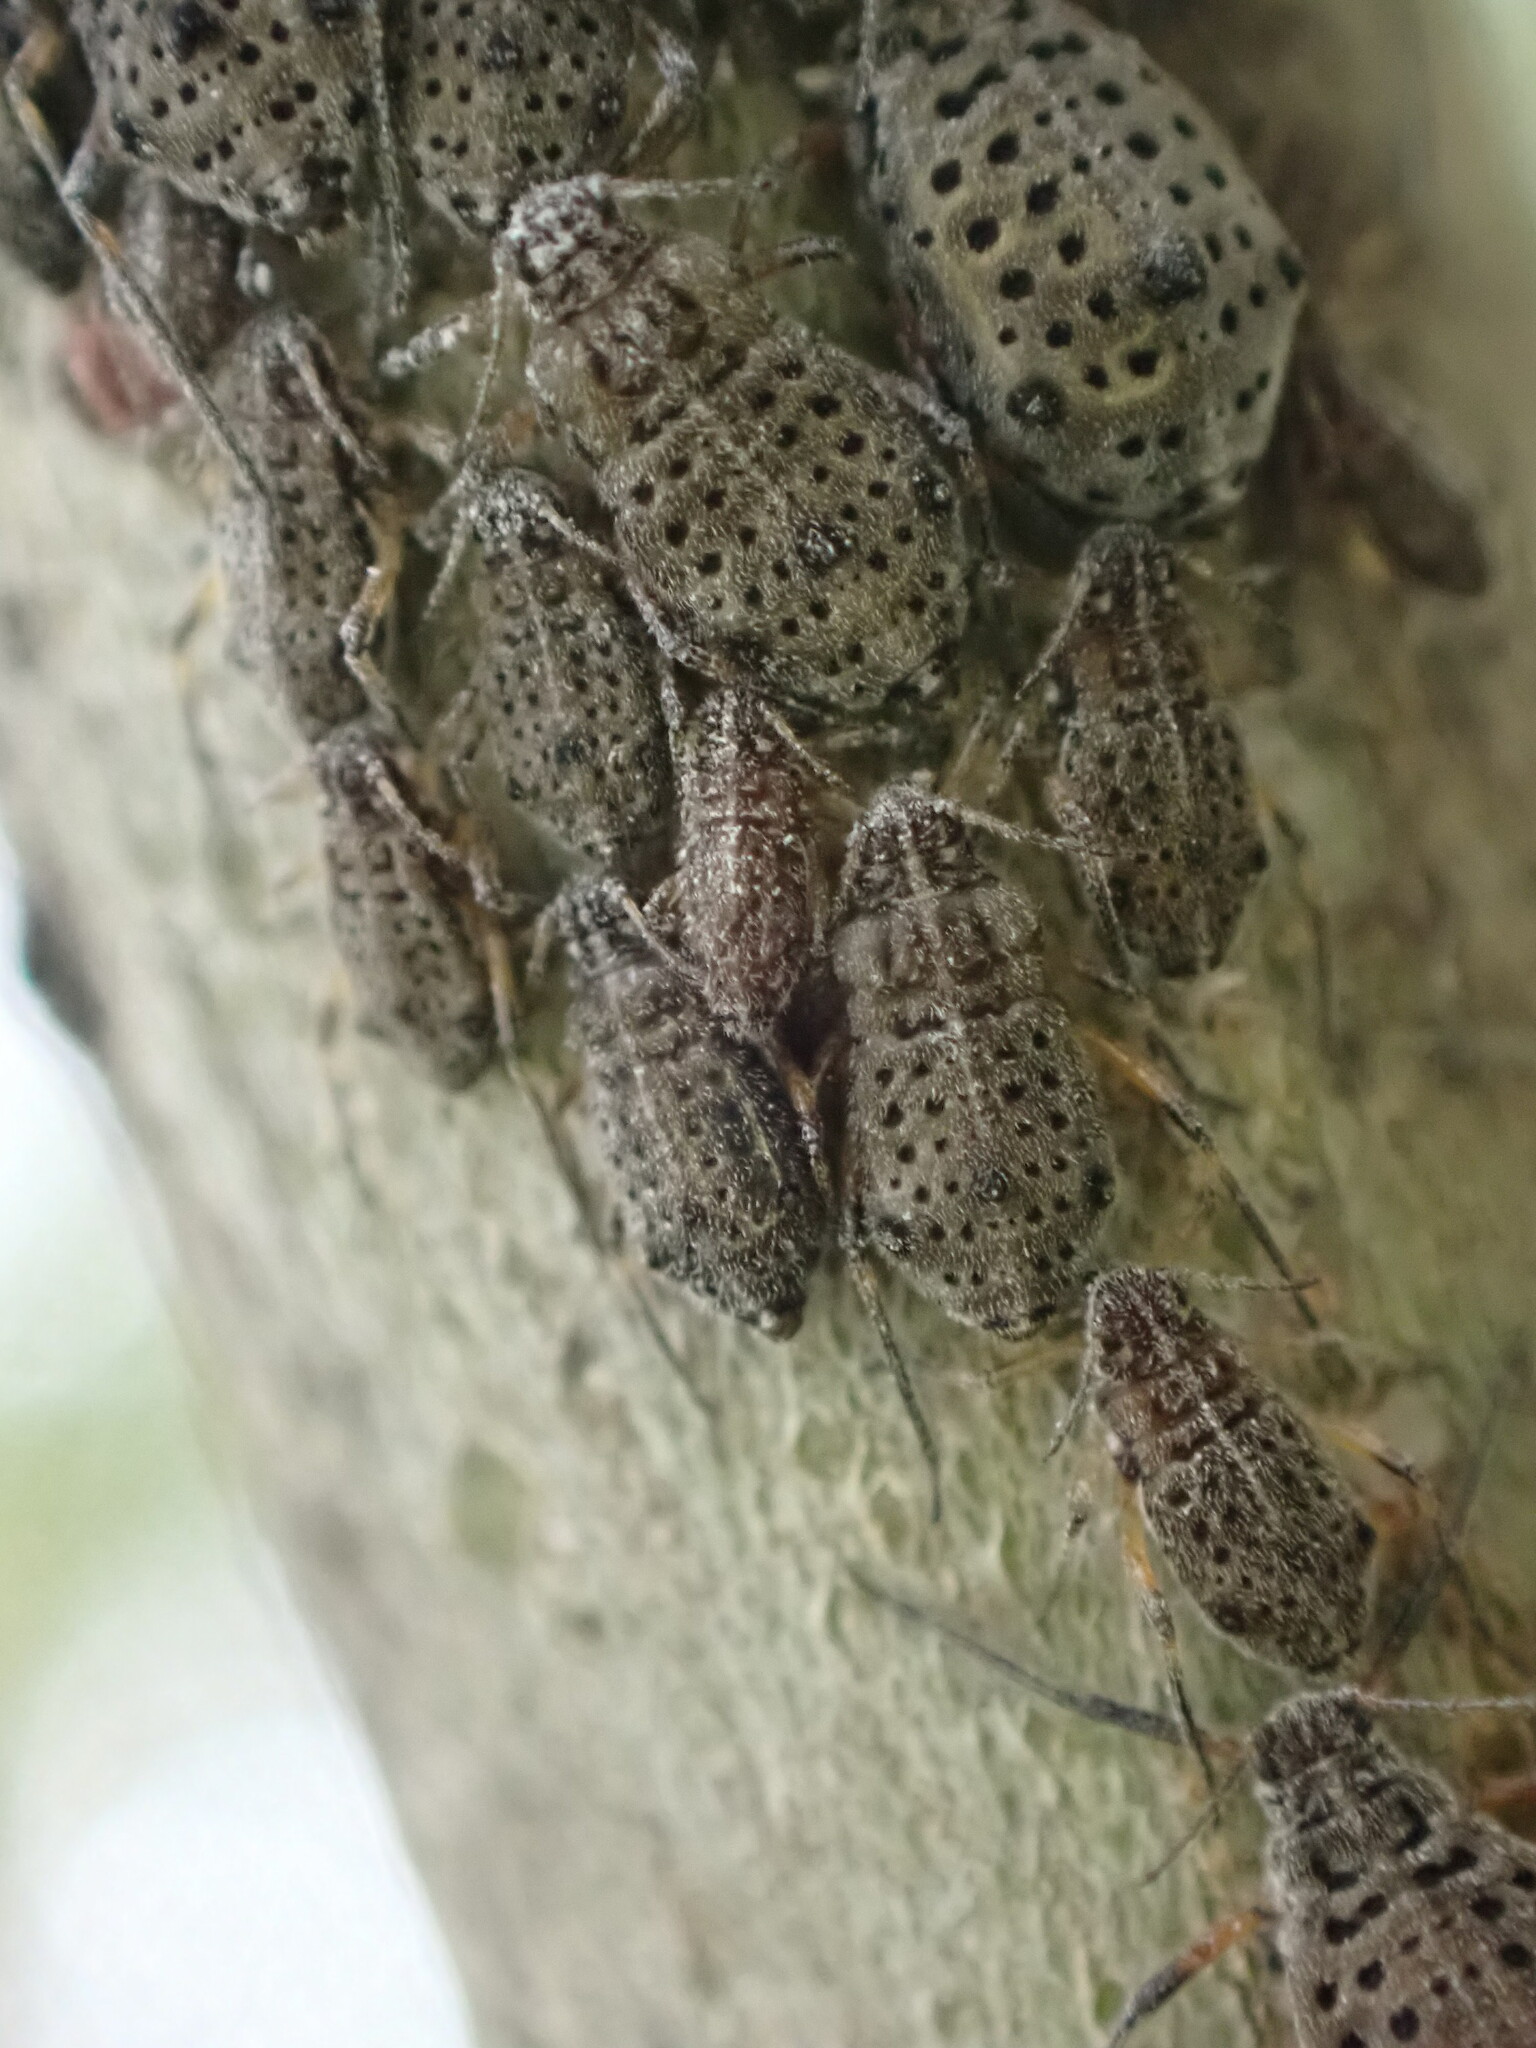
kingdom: Animalia
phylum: Arthropoda
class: Insecta
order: Hemiptera
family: Aphididae
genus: Tuberolachnus
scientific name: Tuberolachnus salignus
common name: Giant willow aphid
